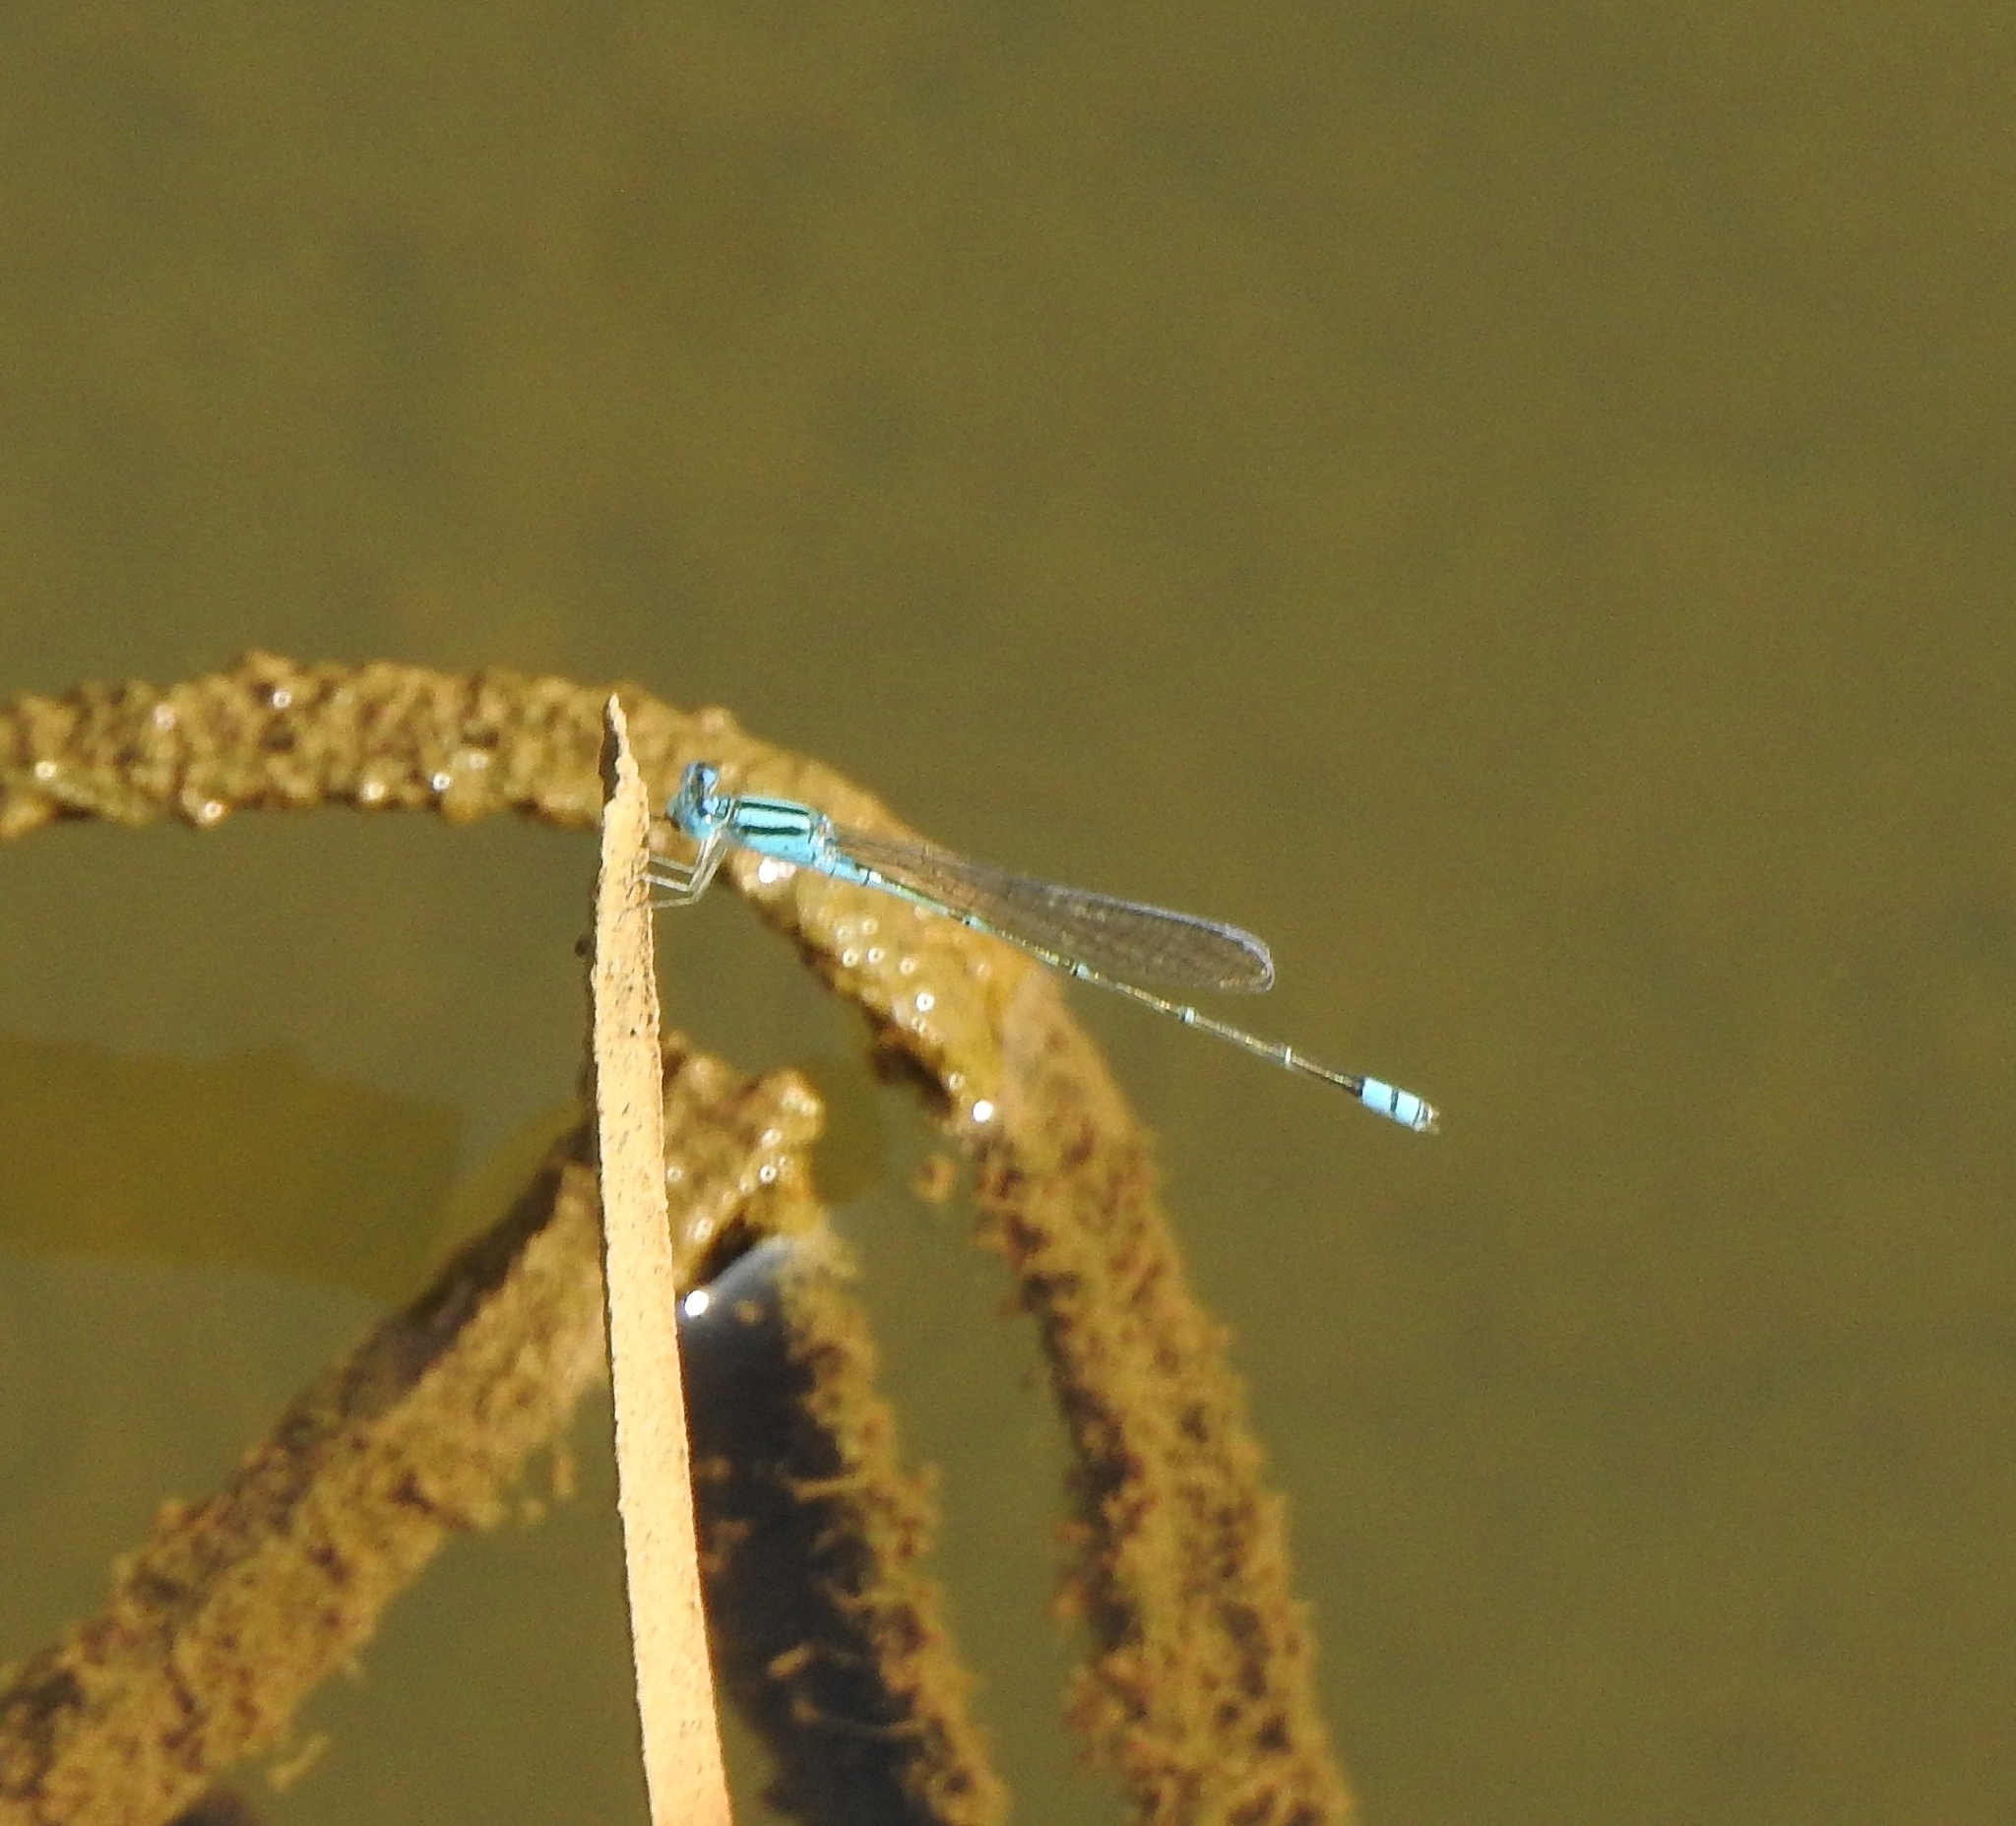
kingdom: Animalia
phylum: Arthropoda
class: Insecta
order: Odonata
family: Coenagrionidae
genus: Pseudagrion
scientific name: Pseudagrion microcephalum
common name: Blue riverdamsel
